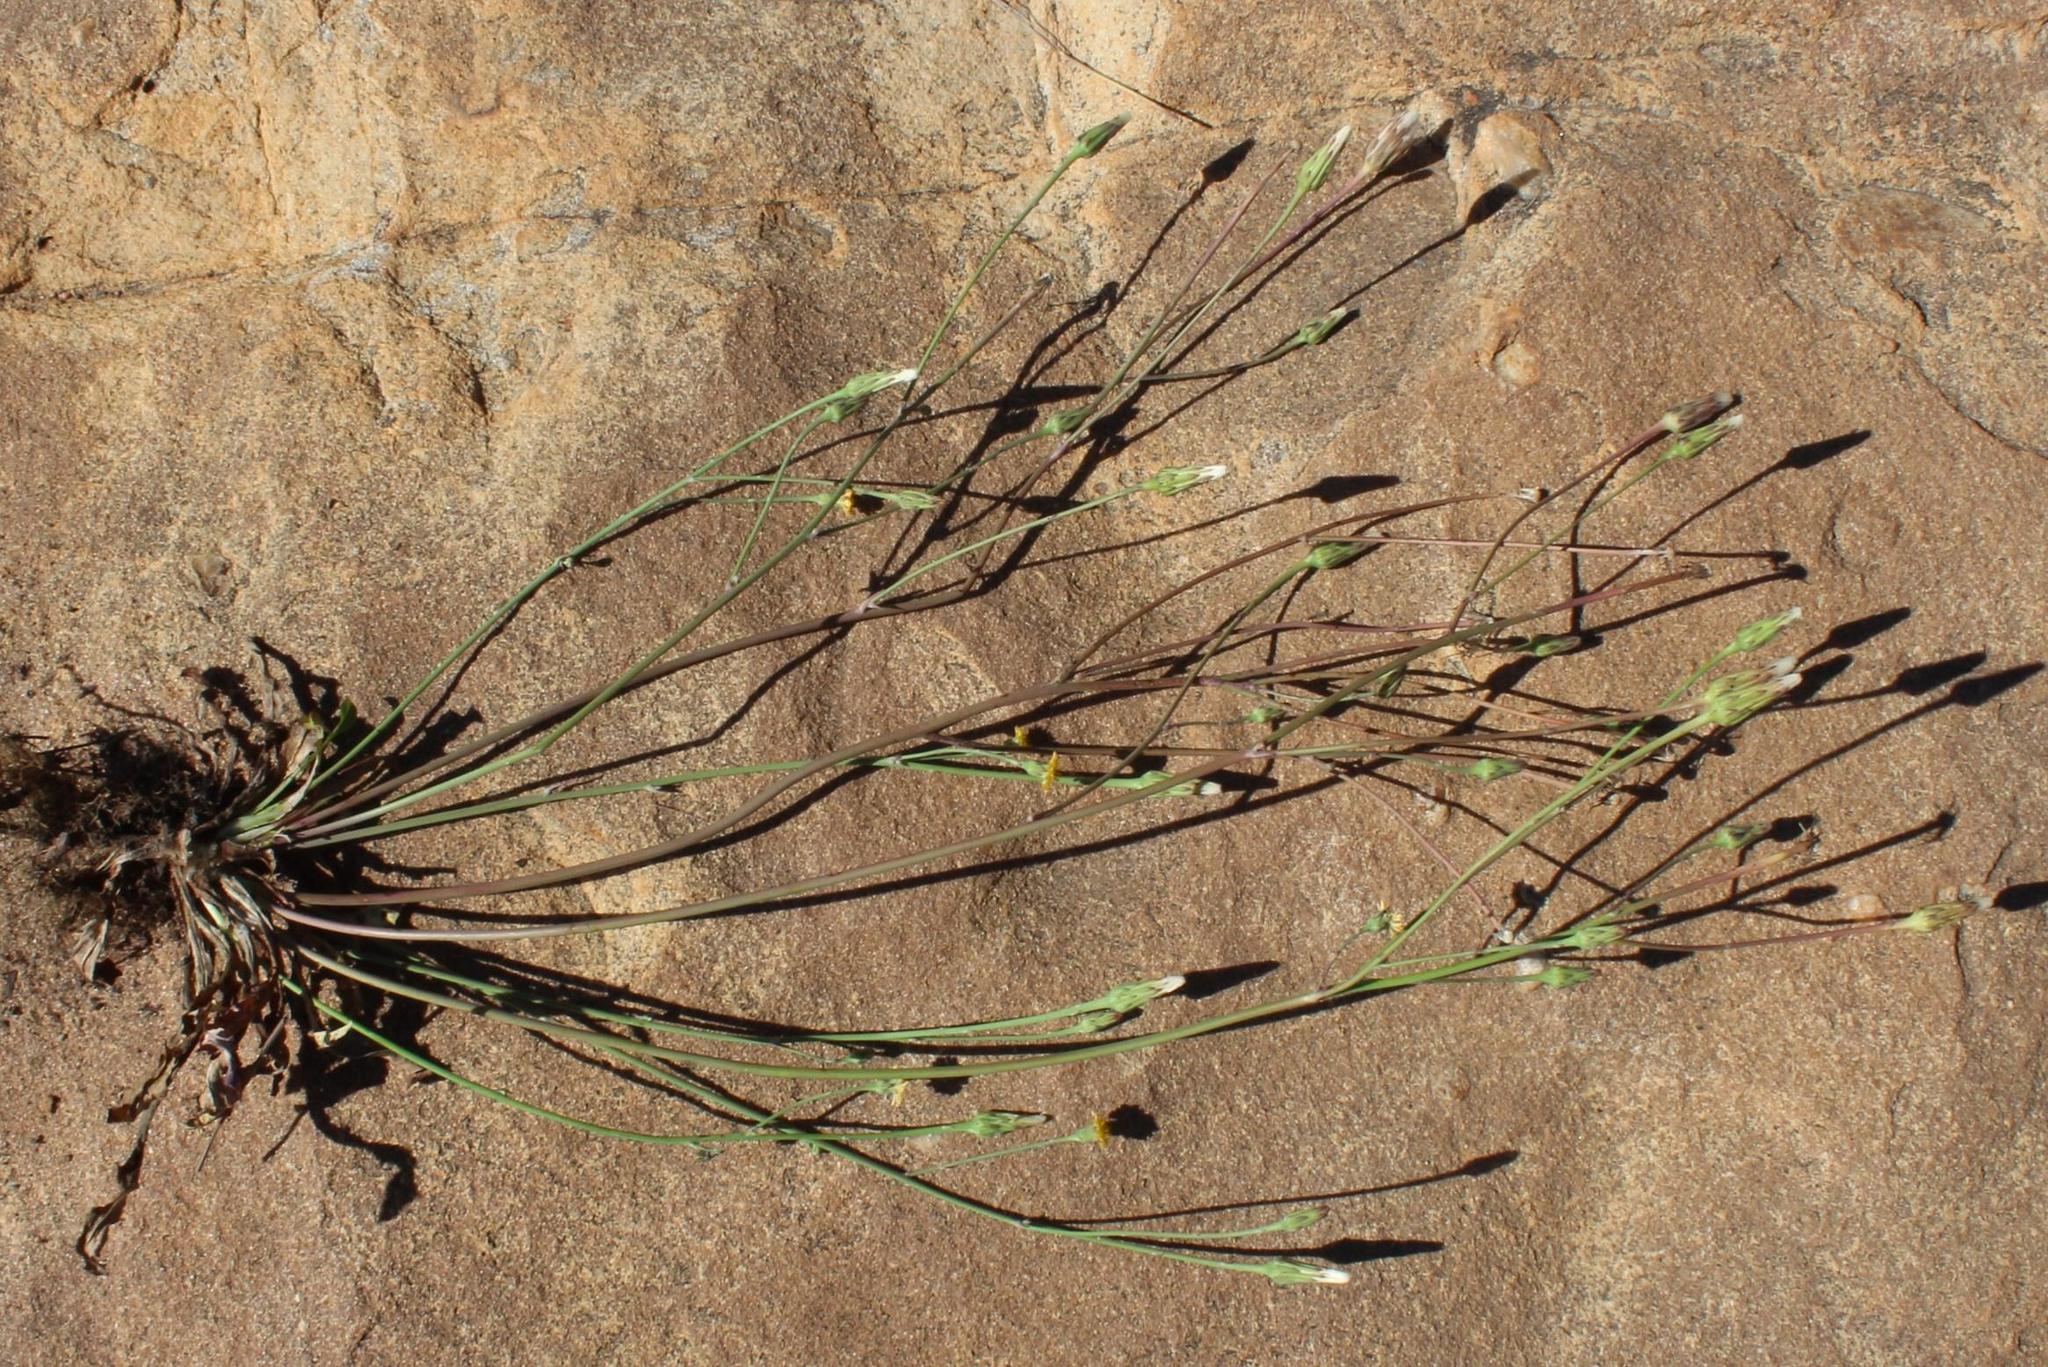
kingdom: Plantae
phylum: Tracheophyta
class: Magnoliopsida
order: Asterales
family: Asteraceae
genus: Hypochaeris
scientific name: Hypochaeris glabra
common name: Smooth catsear
